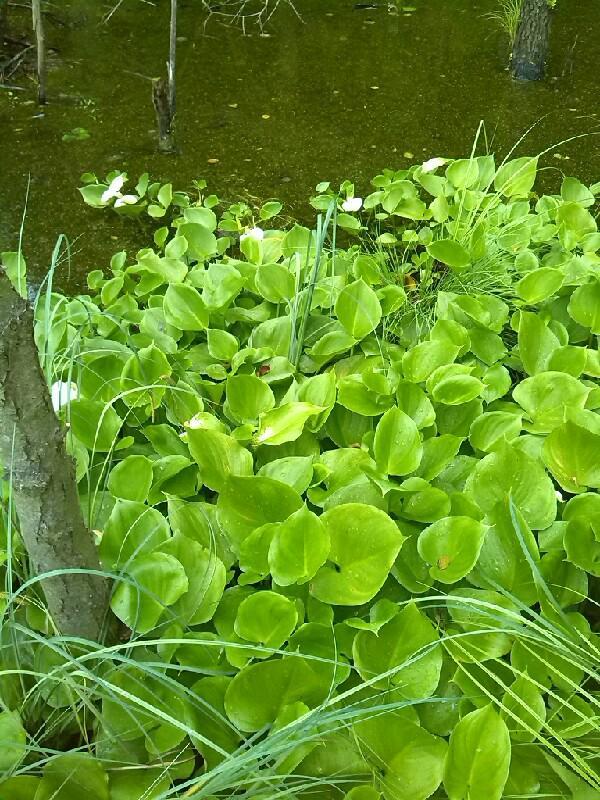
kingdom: Plantae
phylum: Tracheophyta
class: Liliopsida
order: Alismatales
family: Araceae
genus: Calla
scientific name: Calla palustris
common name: Bog arum
